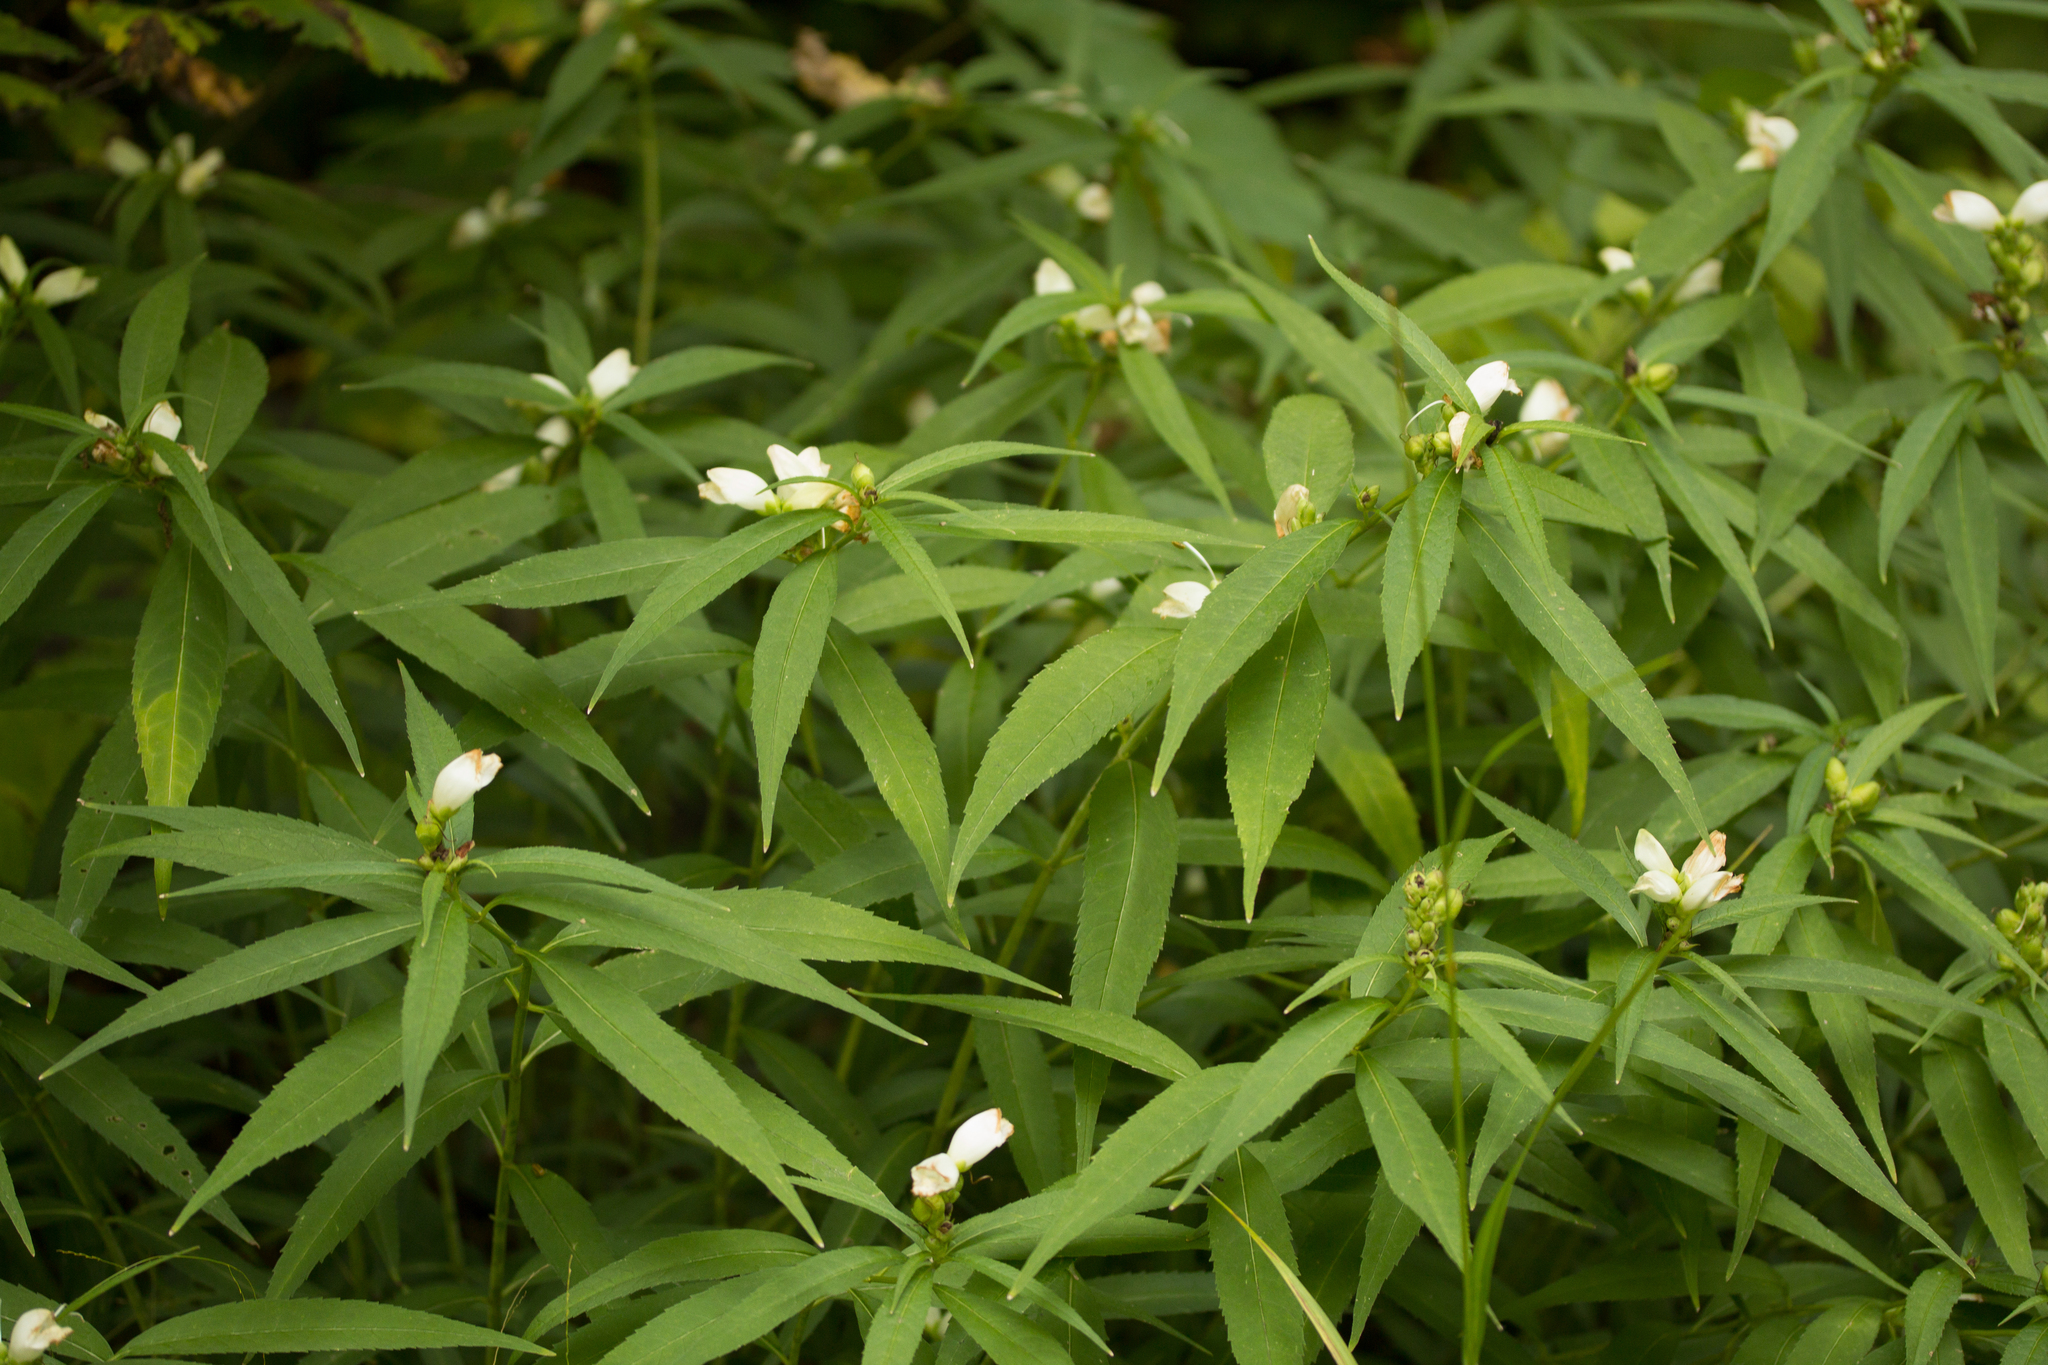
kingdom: Plantae
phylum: Tracheophyta
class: Magnoliopsida
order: Lamiales
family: Plantaginaceae
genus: Chelone
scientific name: Chelone glabra
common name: Snakehead
